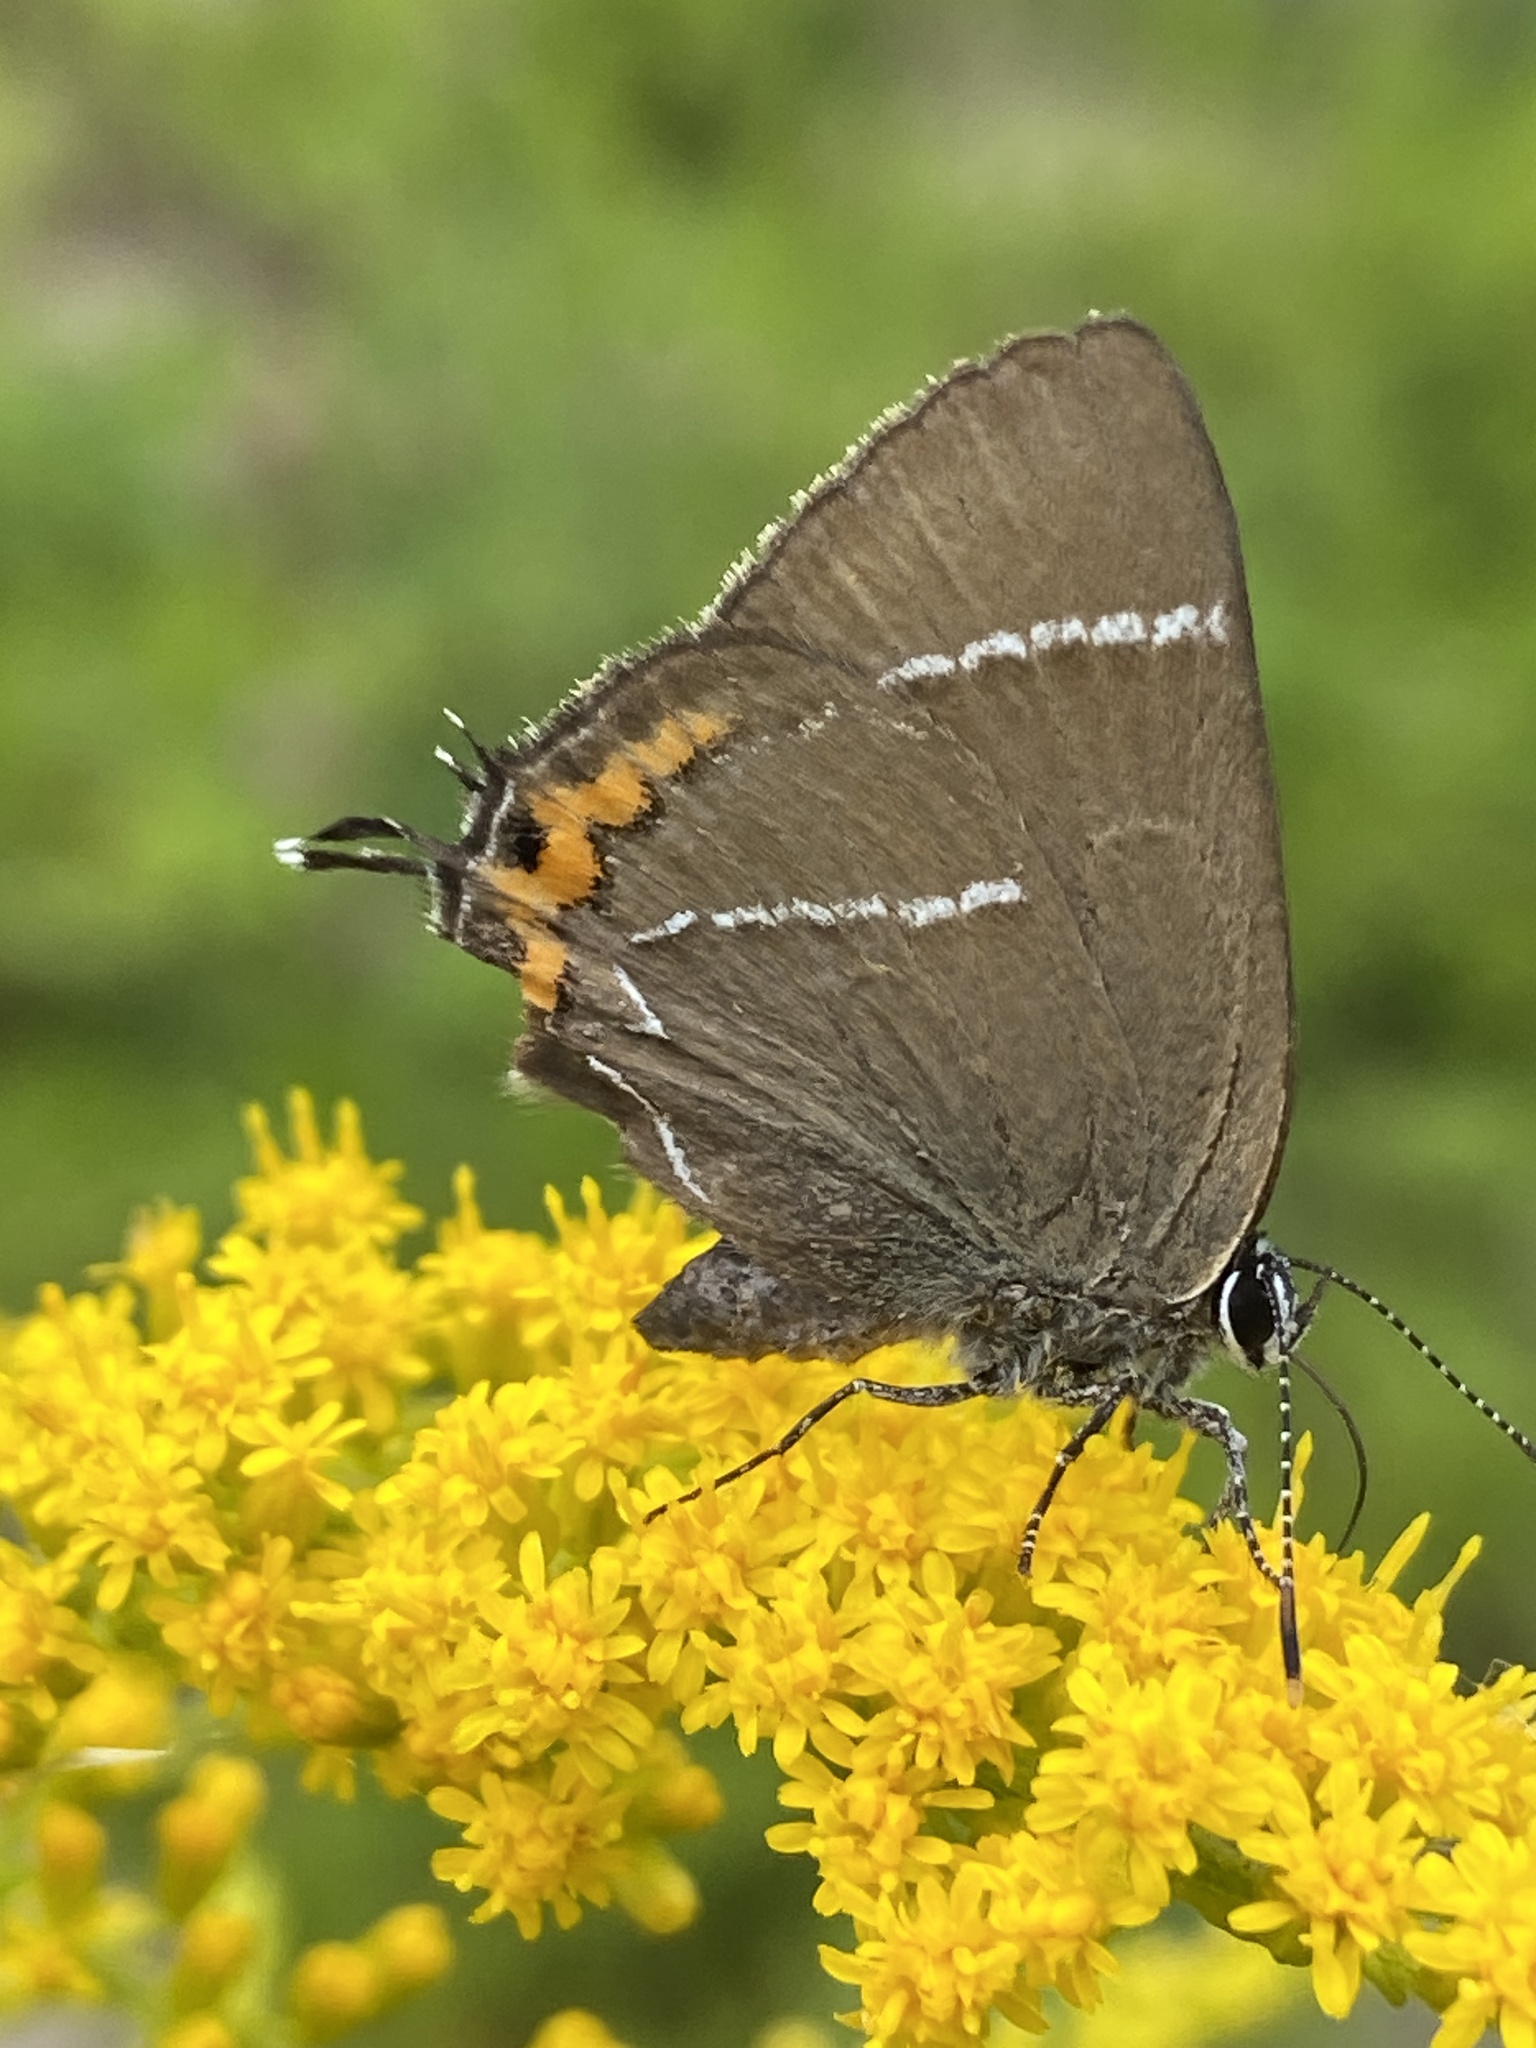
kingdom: Animalia
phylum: Arthropoda
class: Insecta
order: Lepidoptera
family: Lycaenidae
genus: Satyrium
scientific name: Satyrium w-album
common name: White-letter hairstreak
